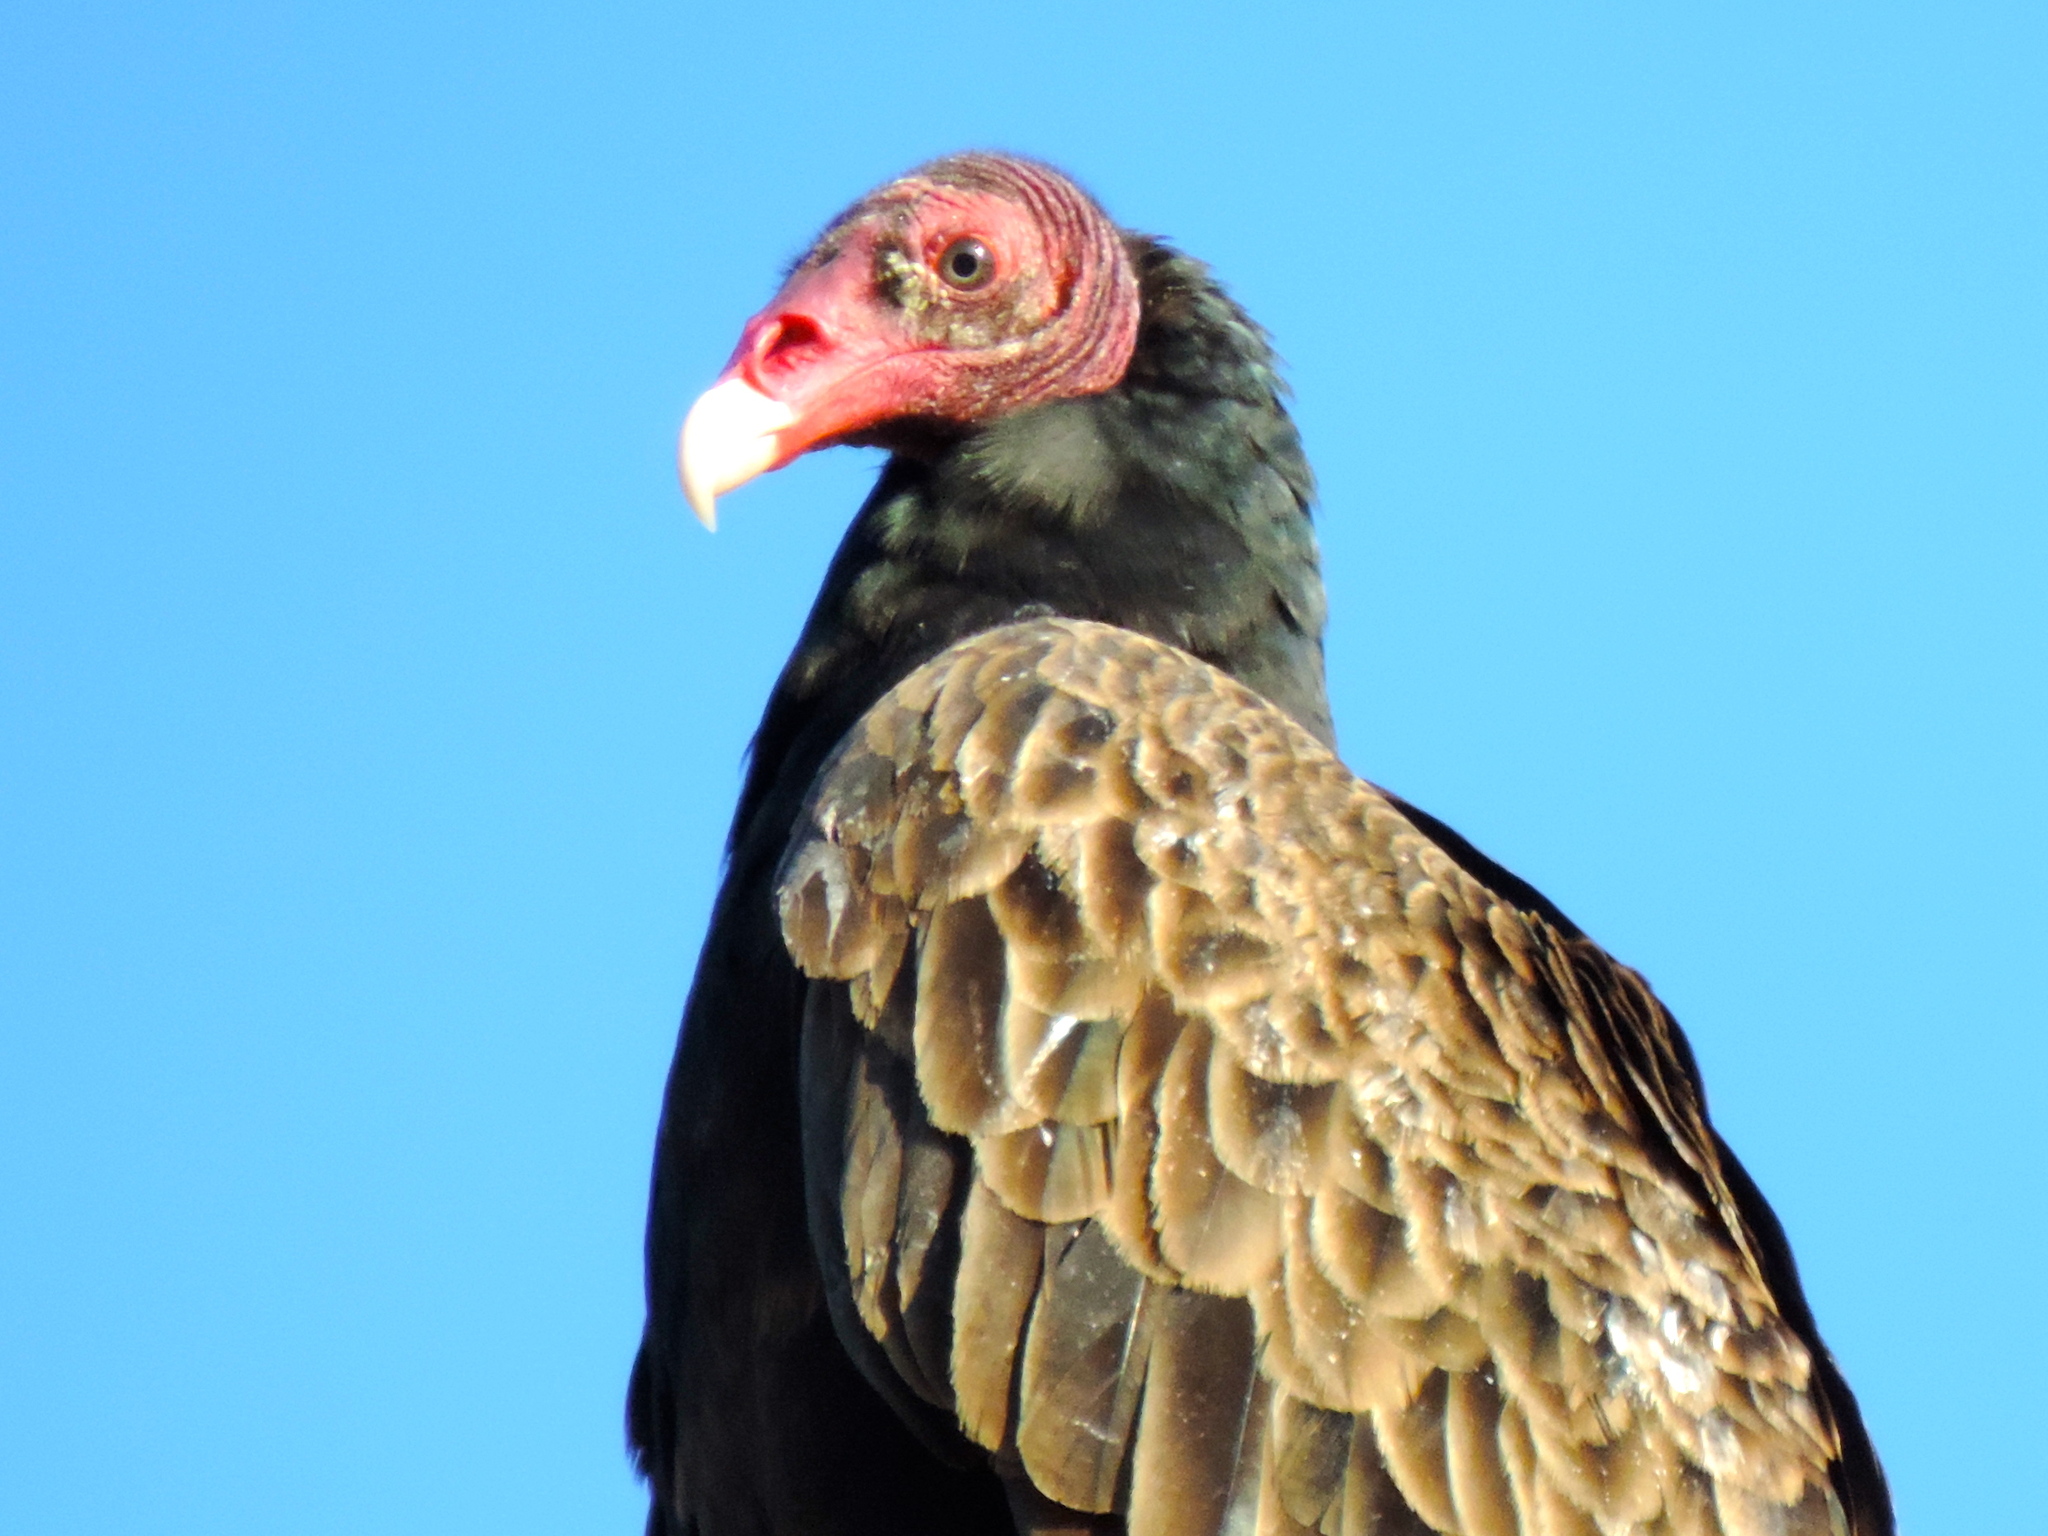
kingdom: Animalia
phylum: Chordata
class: Aves
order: Accipitriformes
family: Cathartidae
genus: Cathartes
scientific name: Cathartes aura
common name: Turkey vulture
